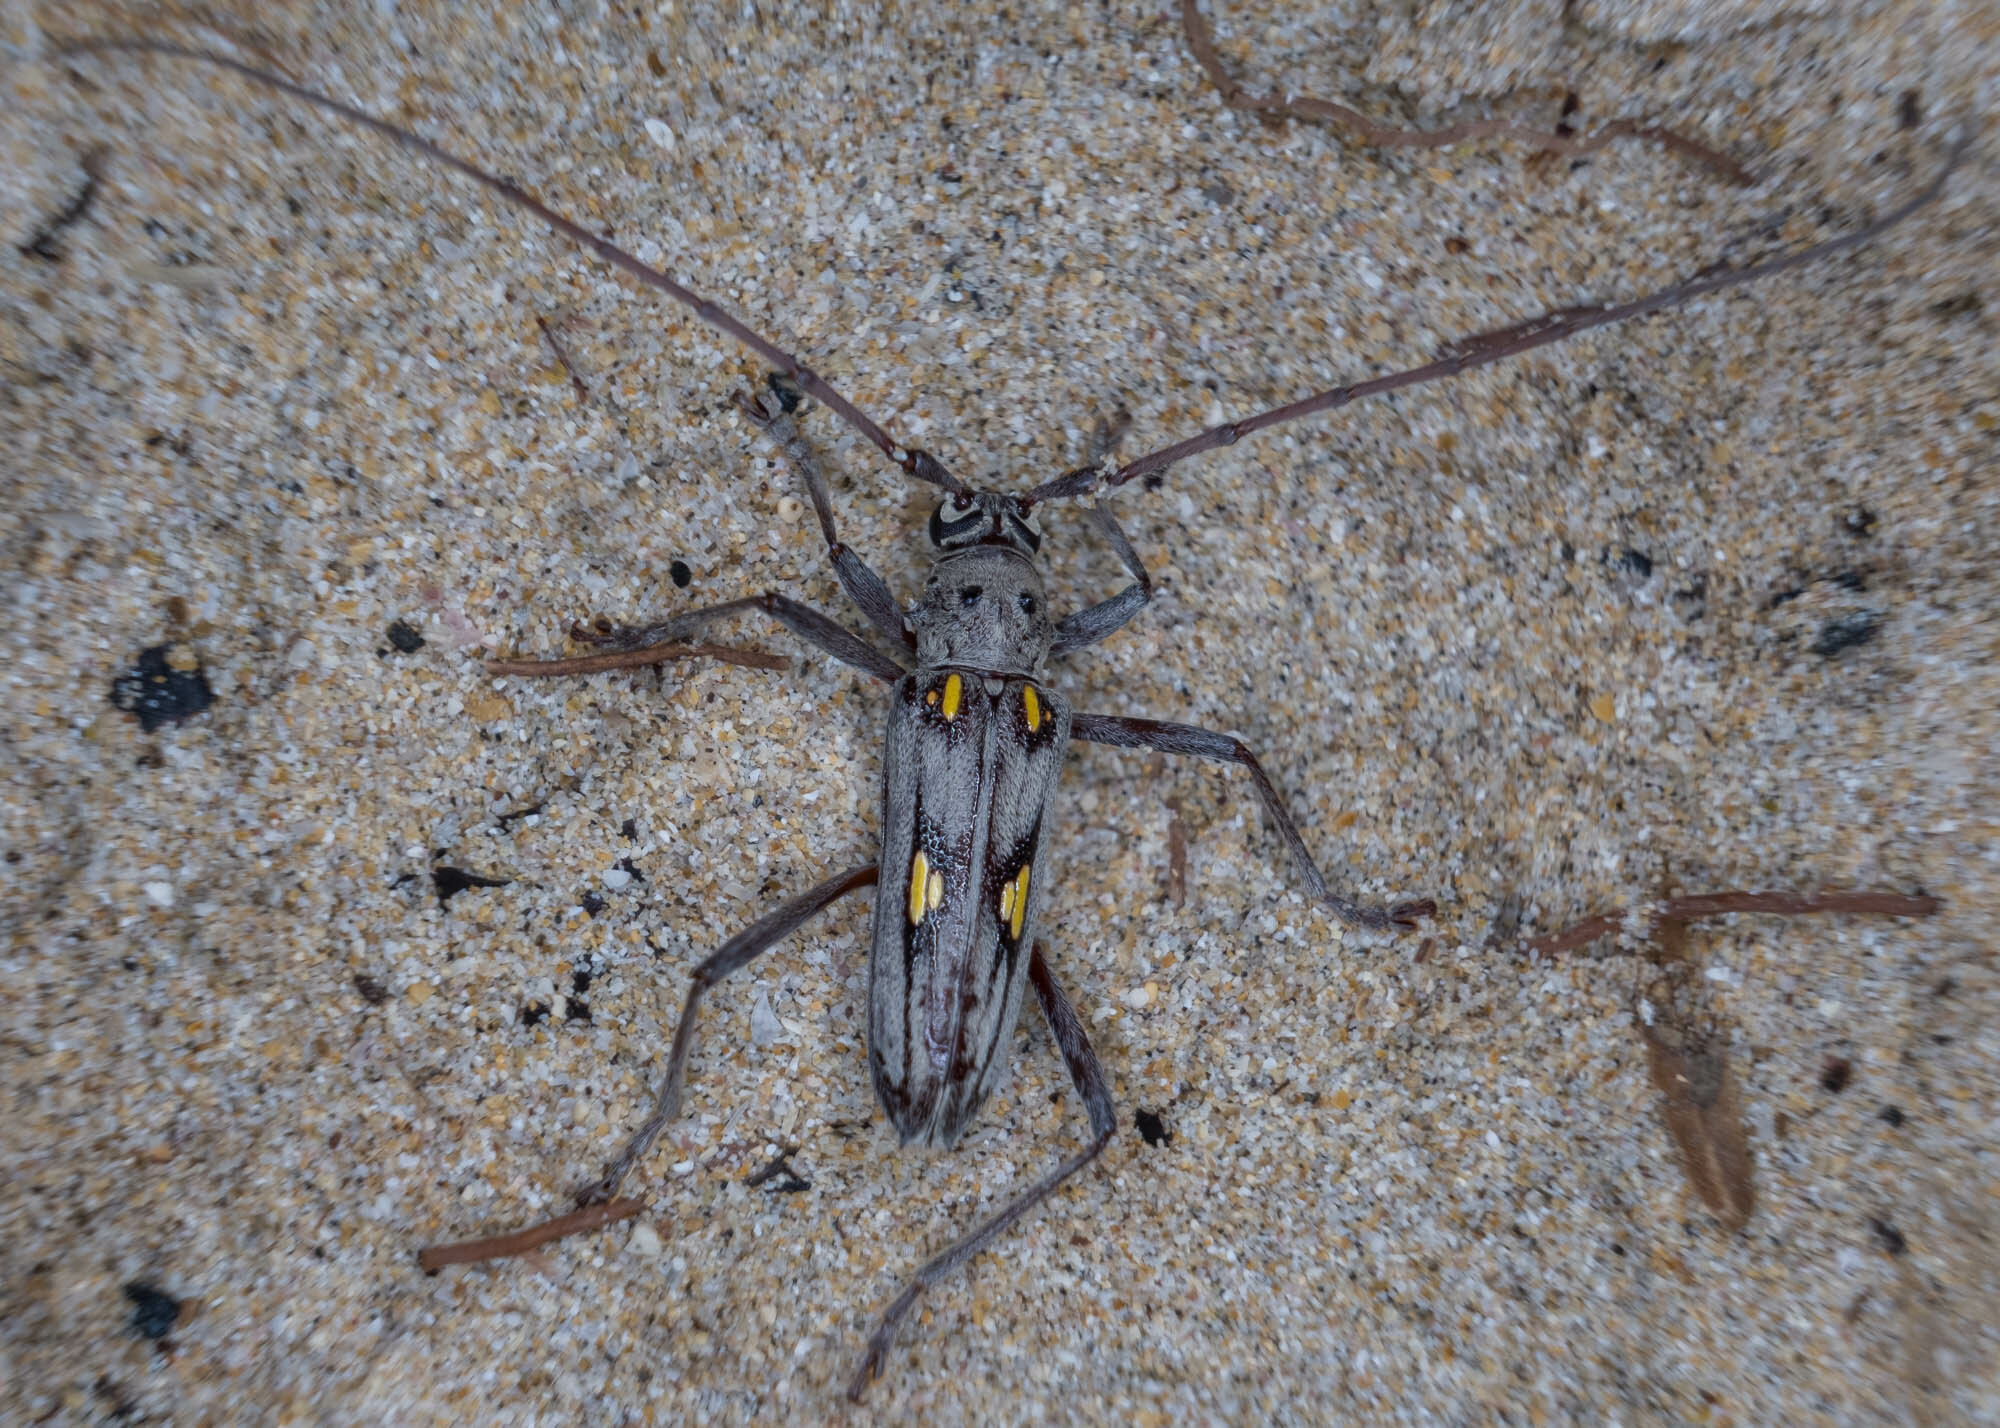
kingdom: Animalia
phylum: Arthropoda
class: Insecta
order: Coleoptera
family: Cerambycidae
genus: Eburia
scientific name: Eburia lanigera
